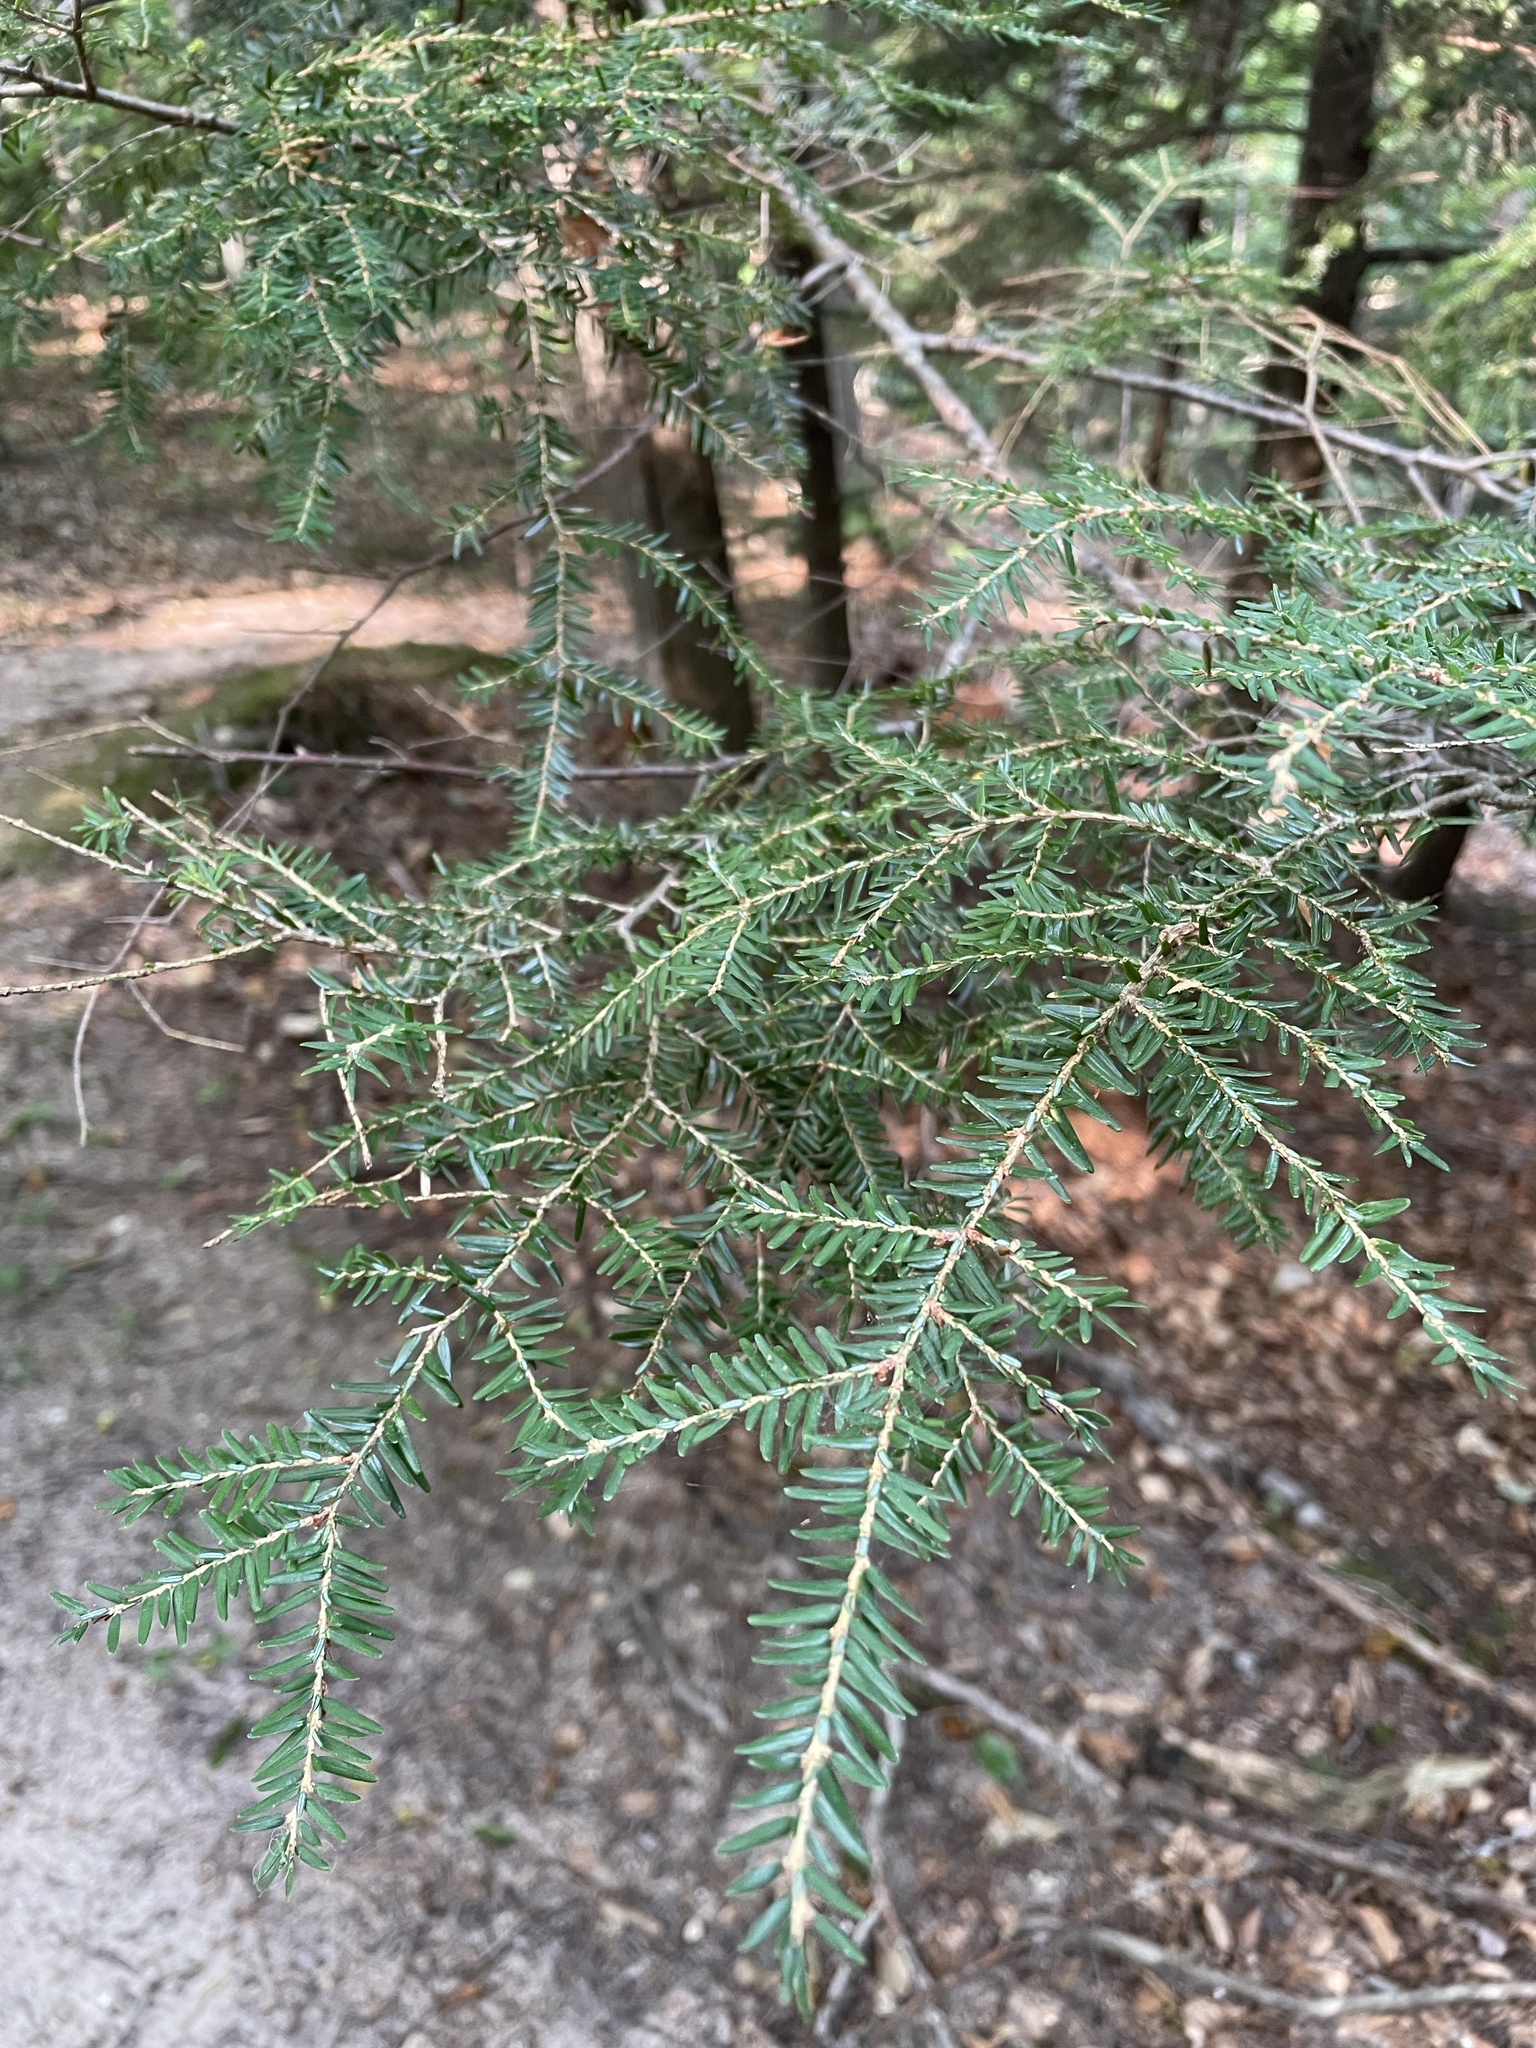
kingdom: Plantae
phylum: Tracheophyta
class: Pinopsida
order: Pinales
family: Pinaceae
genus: Tsuga
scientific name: Tsuga canadensis
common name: Eastern hemlock
